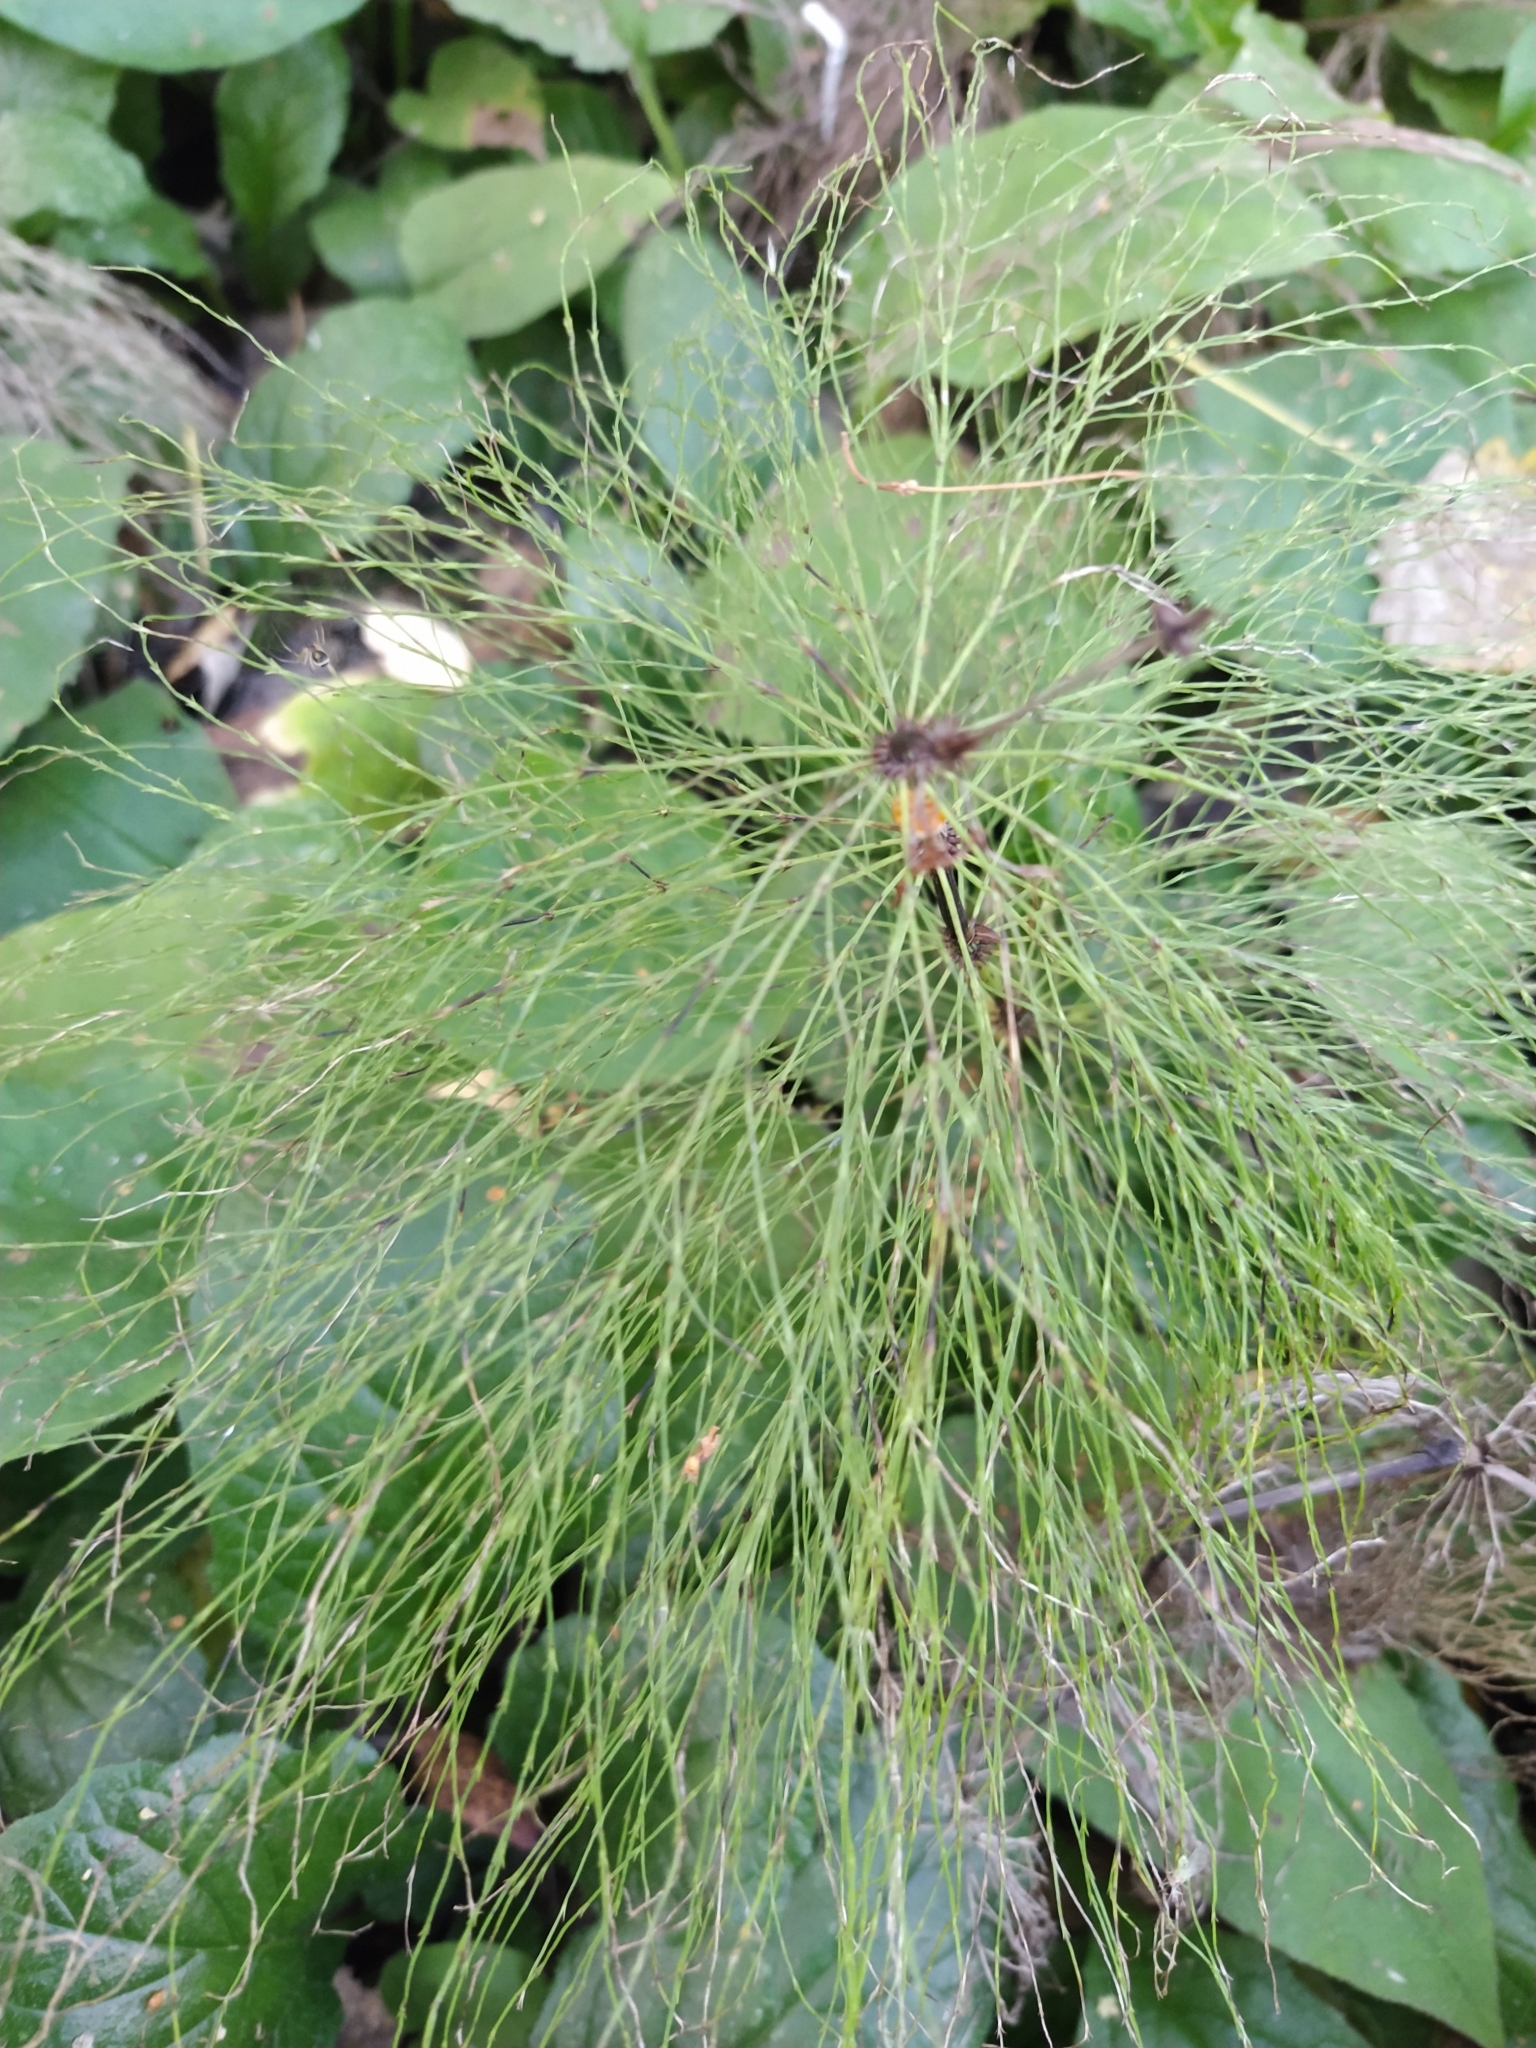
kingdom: Plantae
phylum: Tracheophyta
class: Polypodiopsida
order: Equisetales
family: Equisetaceae
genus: Equisetum
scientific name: Equisetum sylvaticum
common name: Wood horsetail
